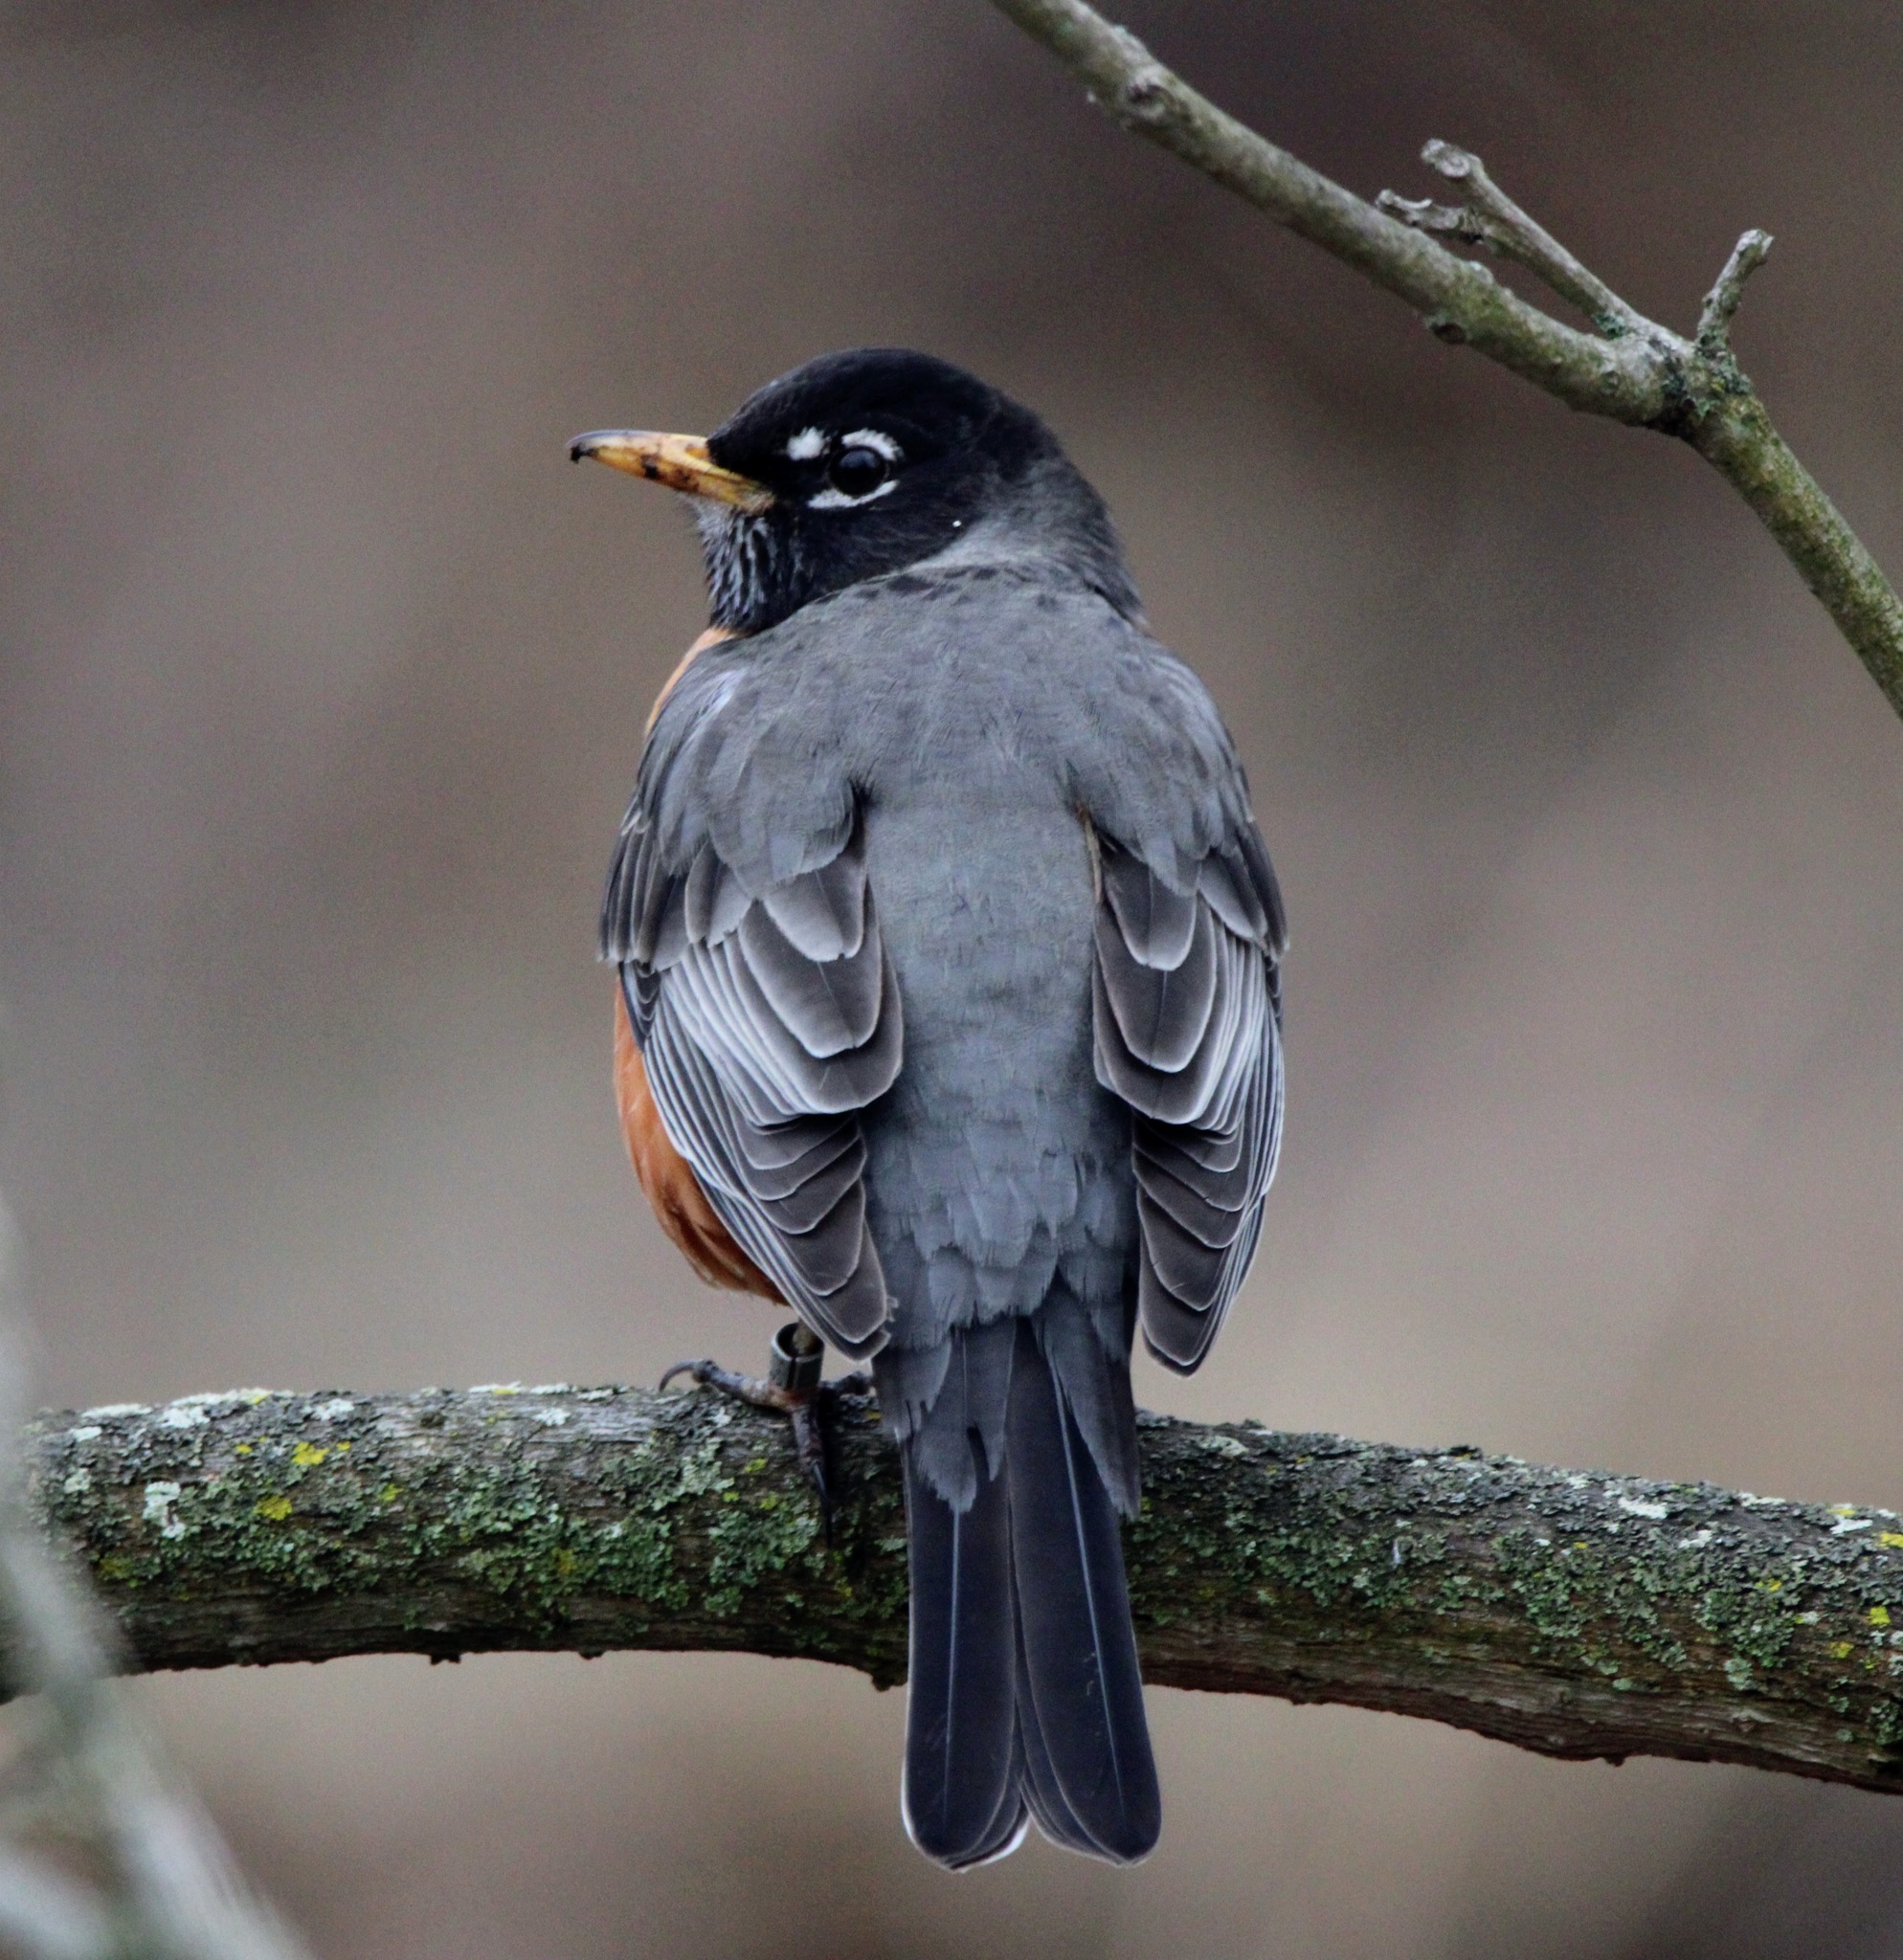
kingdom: Animalia
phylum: Chordata
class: Aves
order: Passeriformes
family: Turdidae
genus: Turdus
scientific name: Turdus migratorius
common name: American robin
